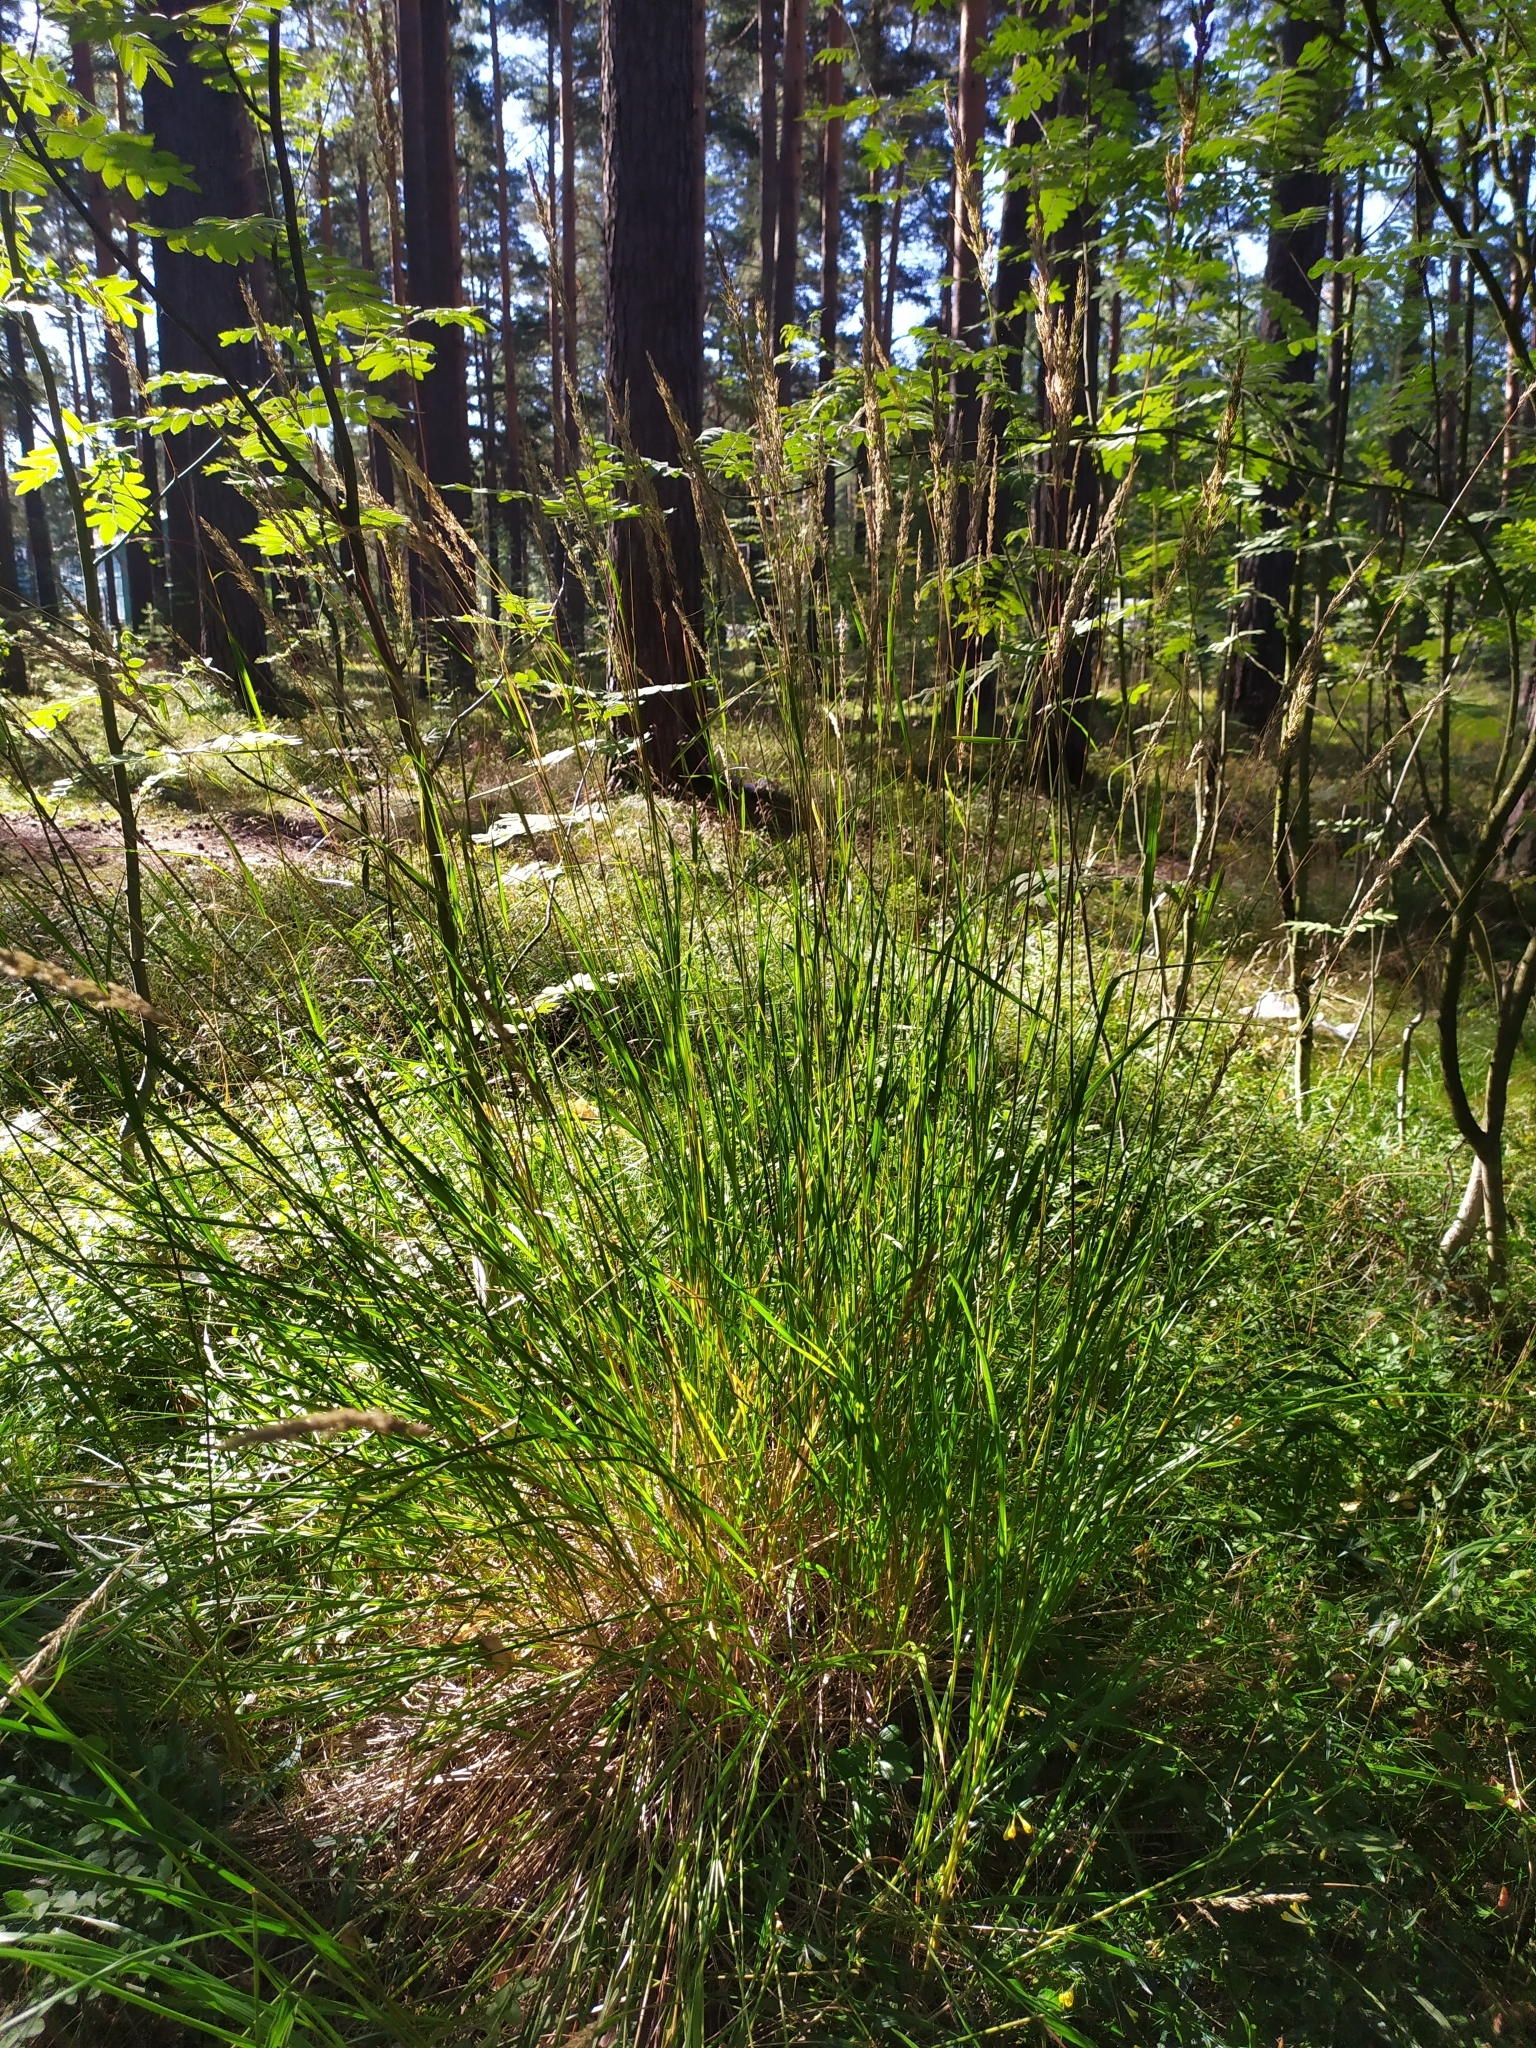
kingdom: Plantae
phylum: Tracheophyta
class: Liliopsida
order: Poales
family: Poaceae
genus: Calamagrostis
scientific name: Calamagrostis arundinacea
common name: Metskastik
